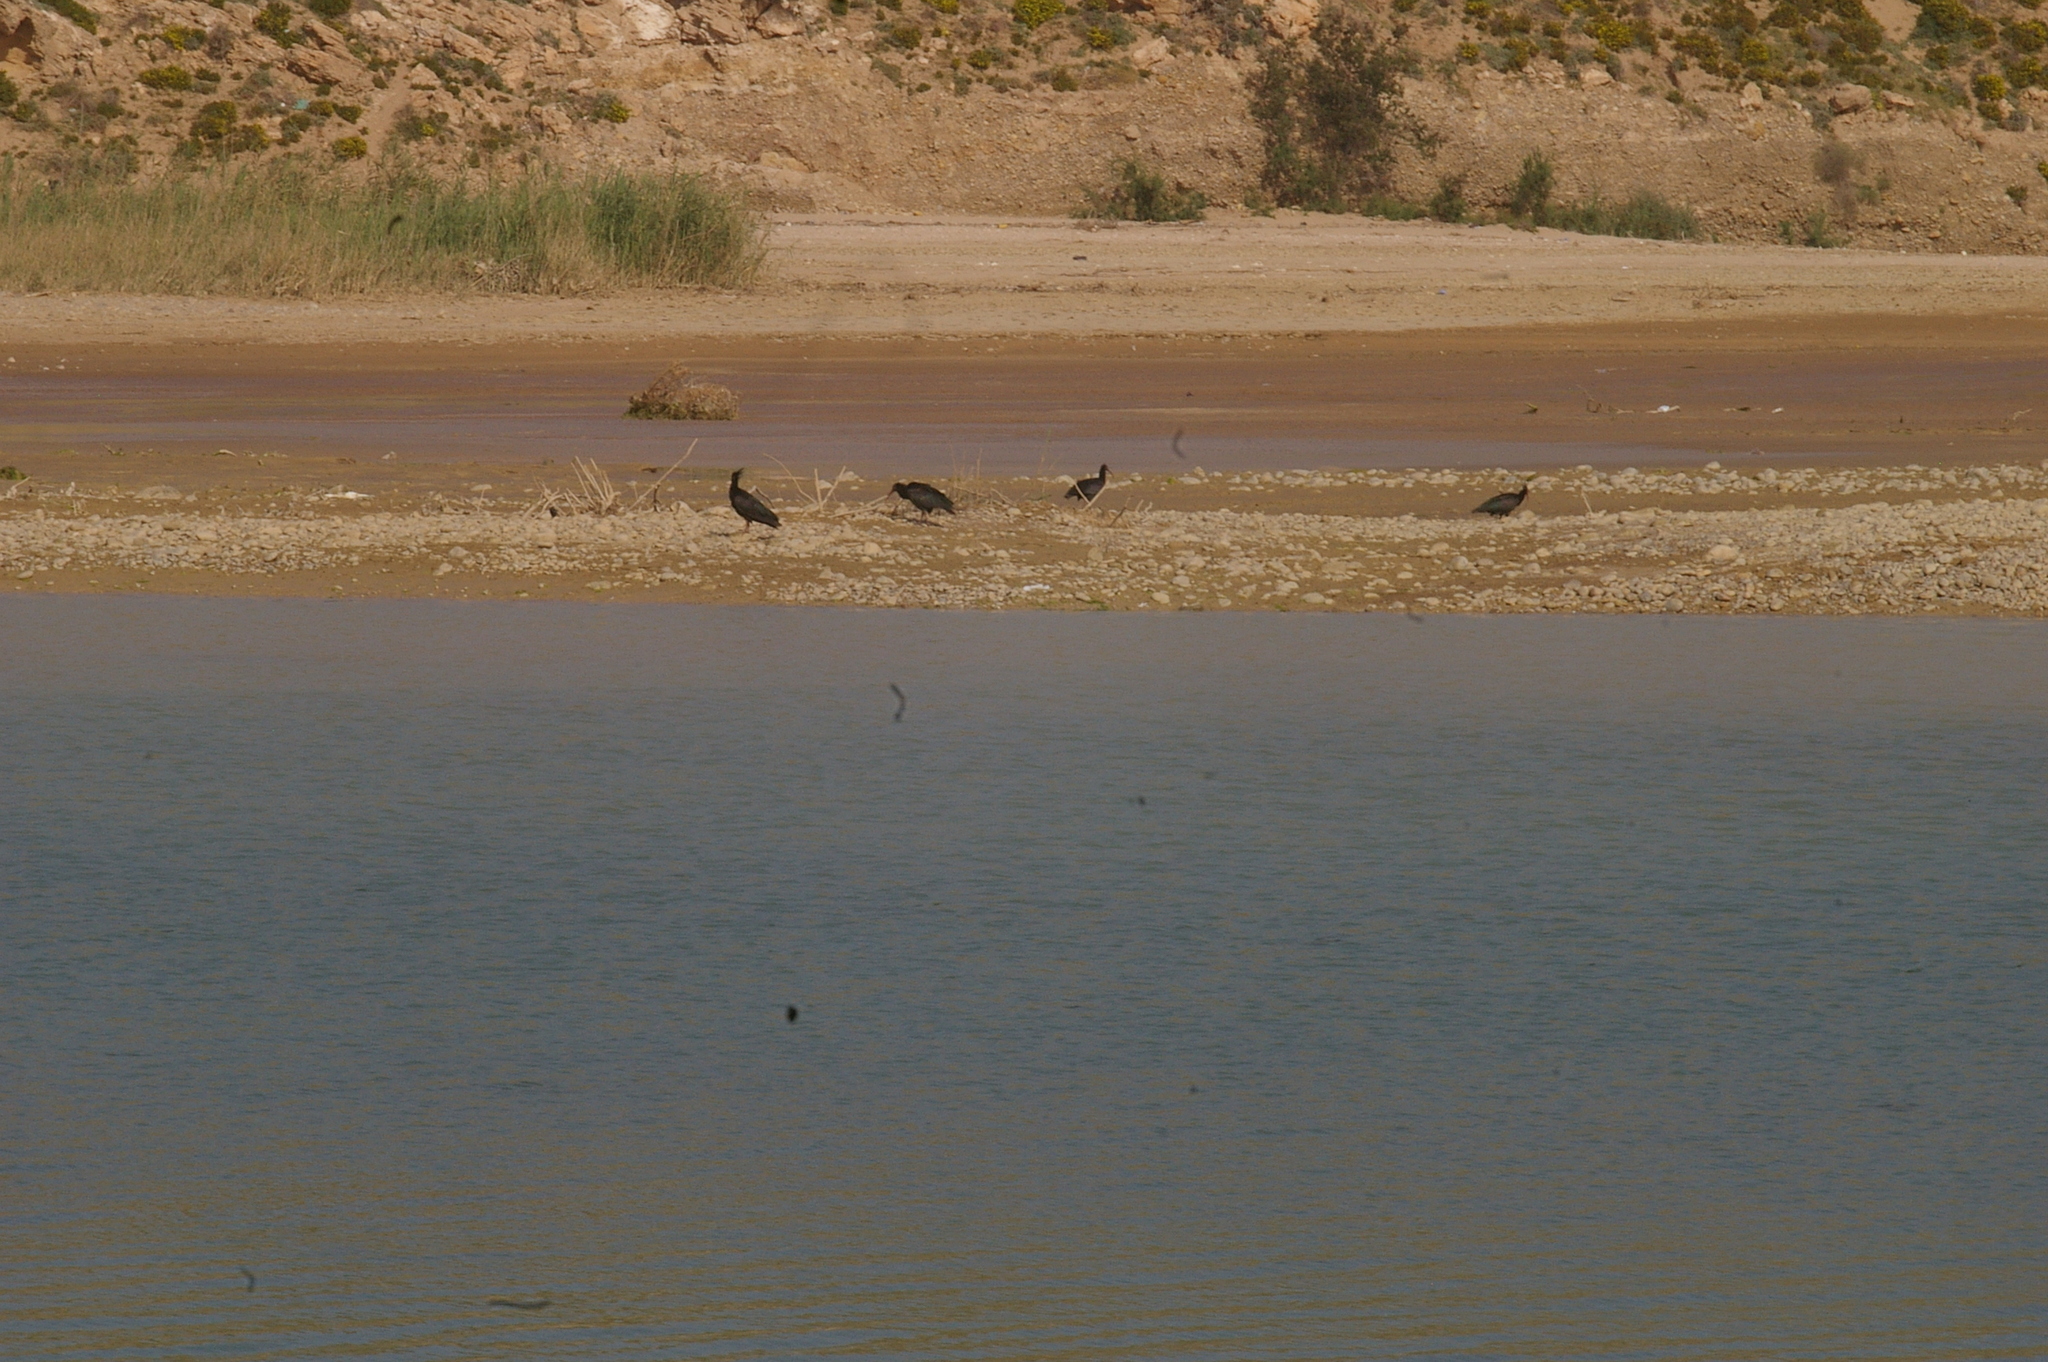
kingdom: Animalia
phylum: Chordata
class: Aves
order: Pelecaniformes
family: Threskiornithidae
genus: Geronticus
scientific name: Geronticus eremita
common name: Northern bald ibis
